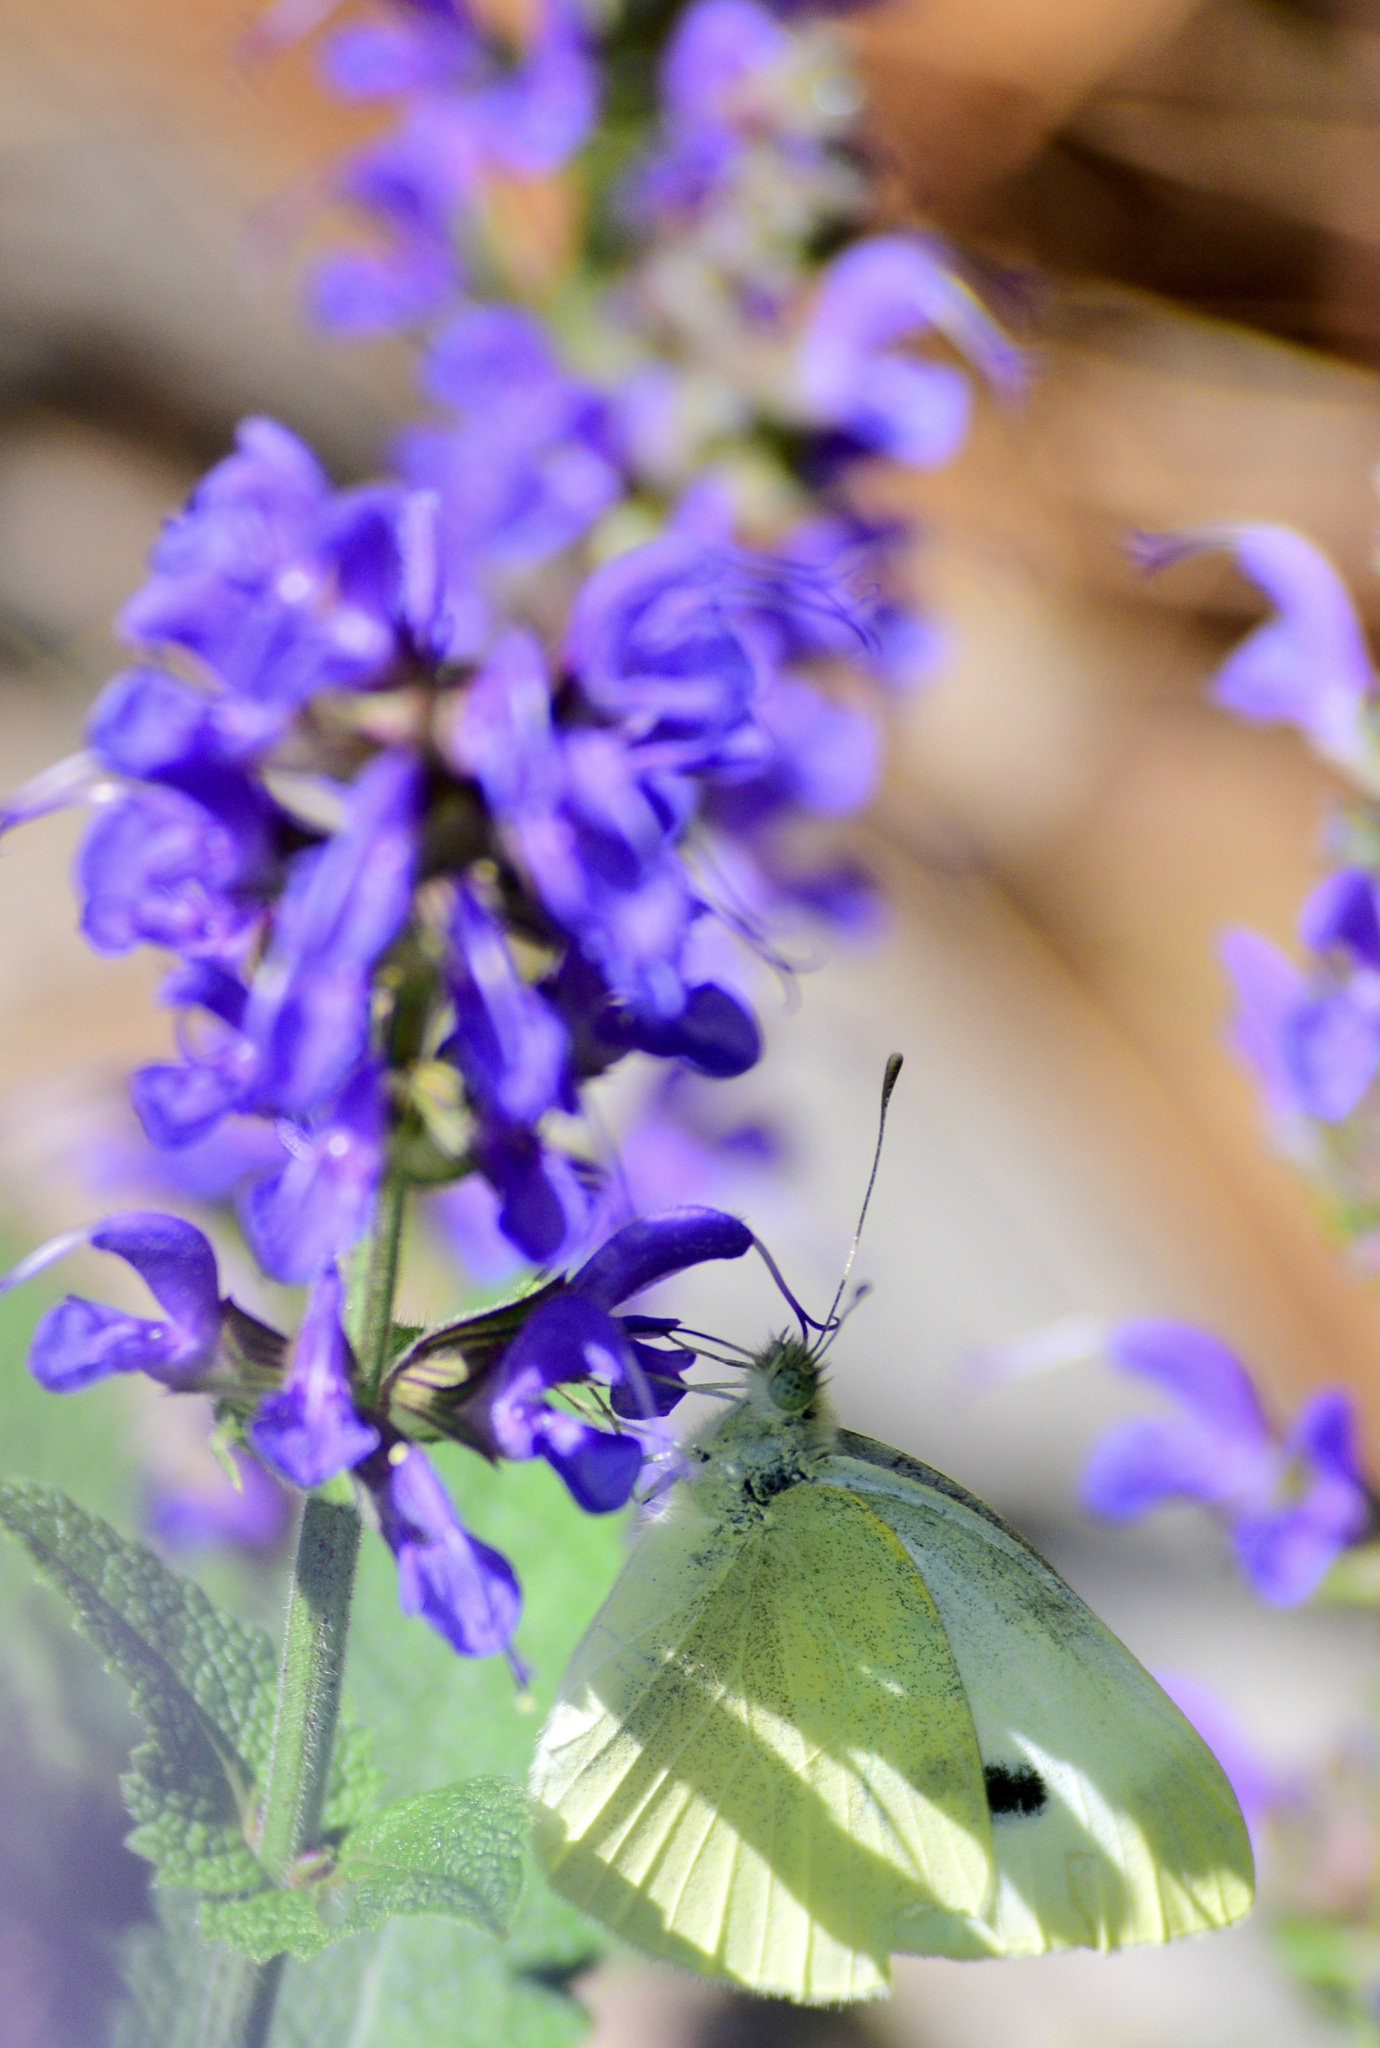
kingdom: Animalia
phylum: Arthropoda
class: Insecta
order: Lepidoptera
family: Pieridae
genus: Pieris
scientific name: Pieris rapae
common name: Small white
